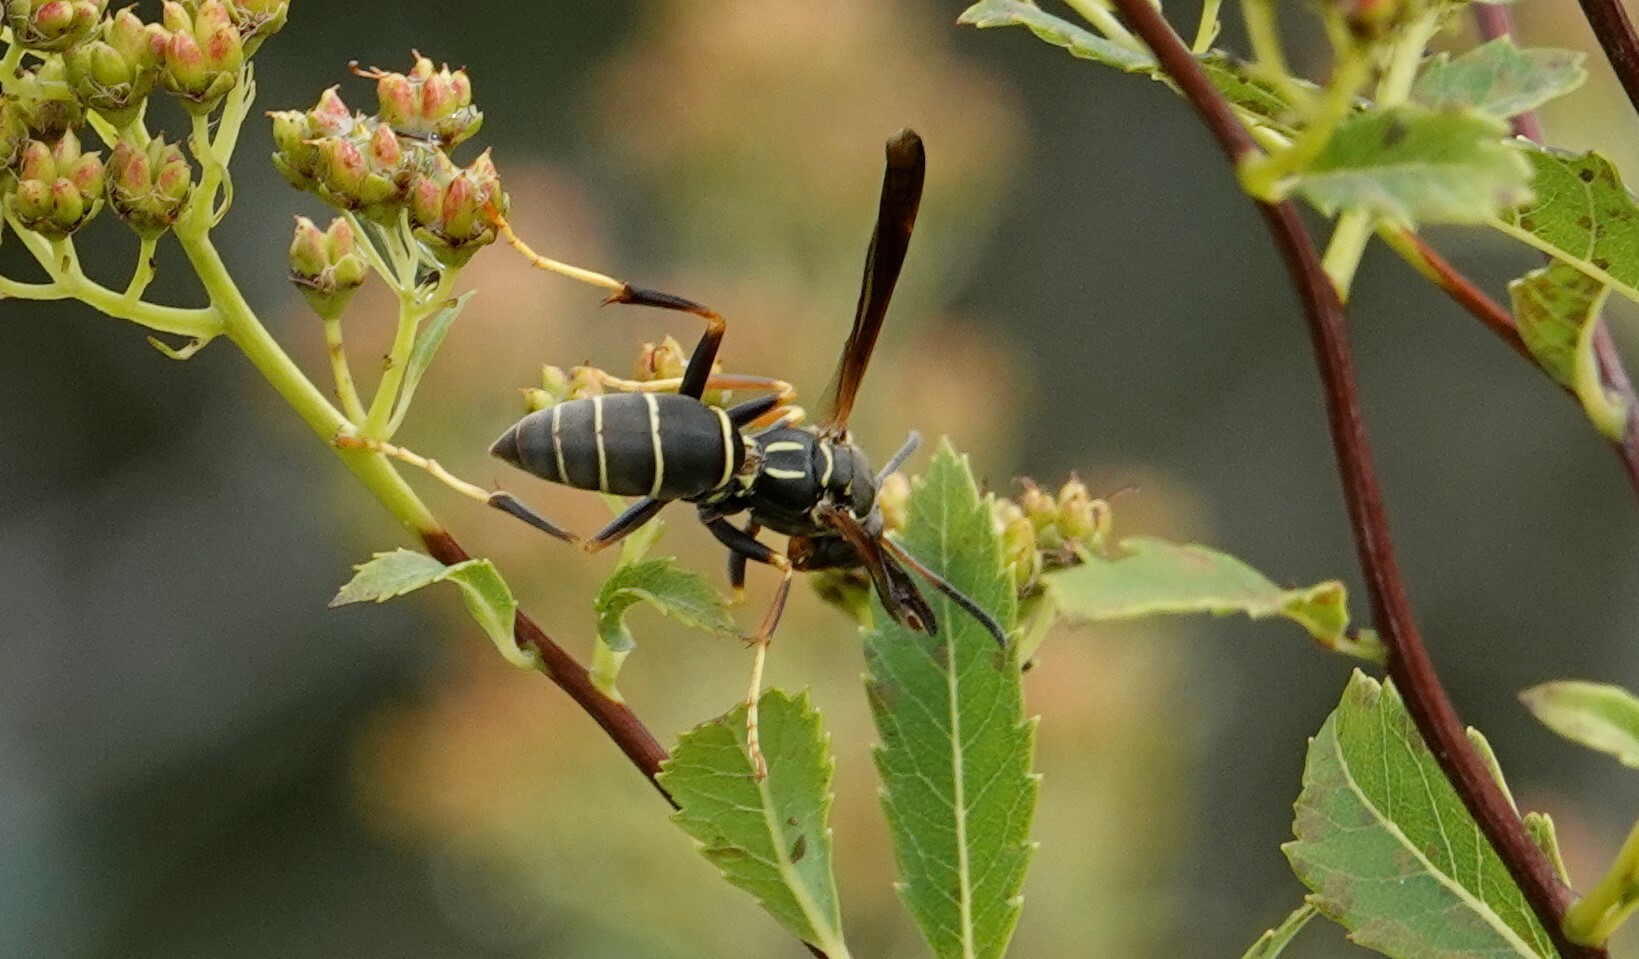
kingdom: Animalia
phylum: Arthropoda
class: Insecta
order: Hymenoptera
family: Eumenidae
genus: Polistes
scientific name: Polistes fuscatus
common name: Dark paper wasp
